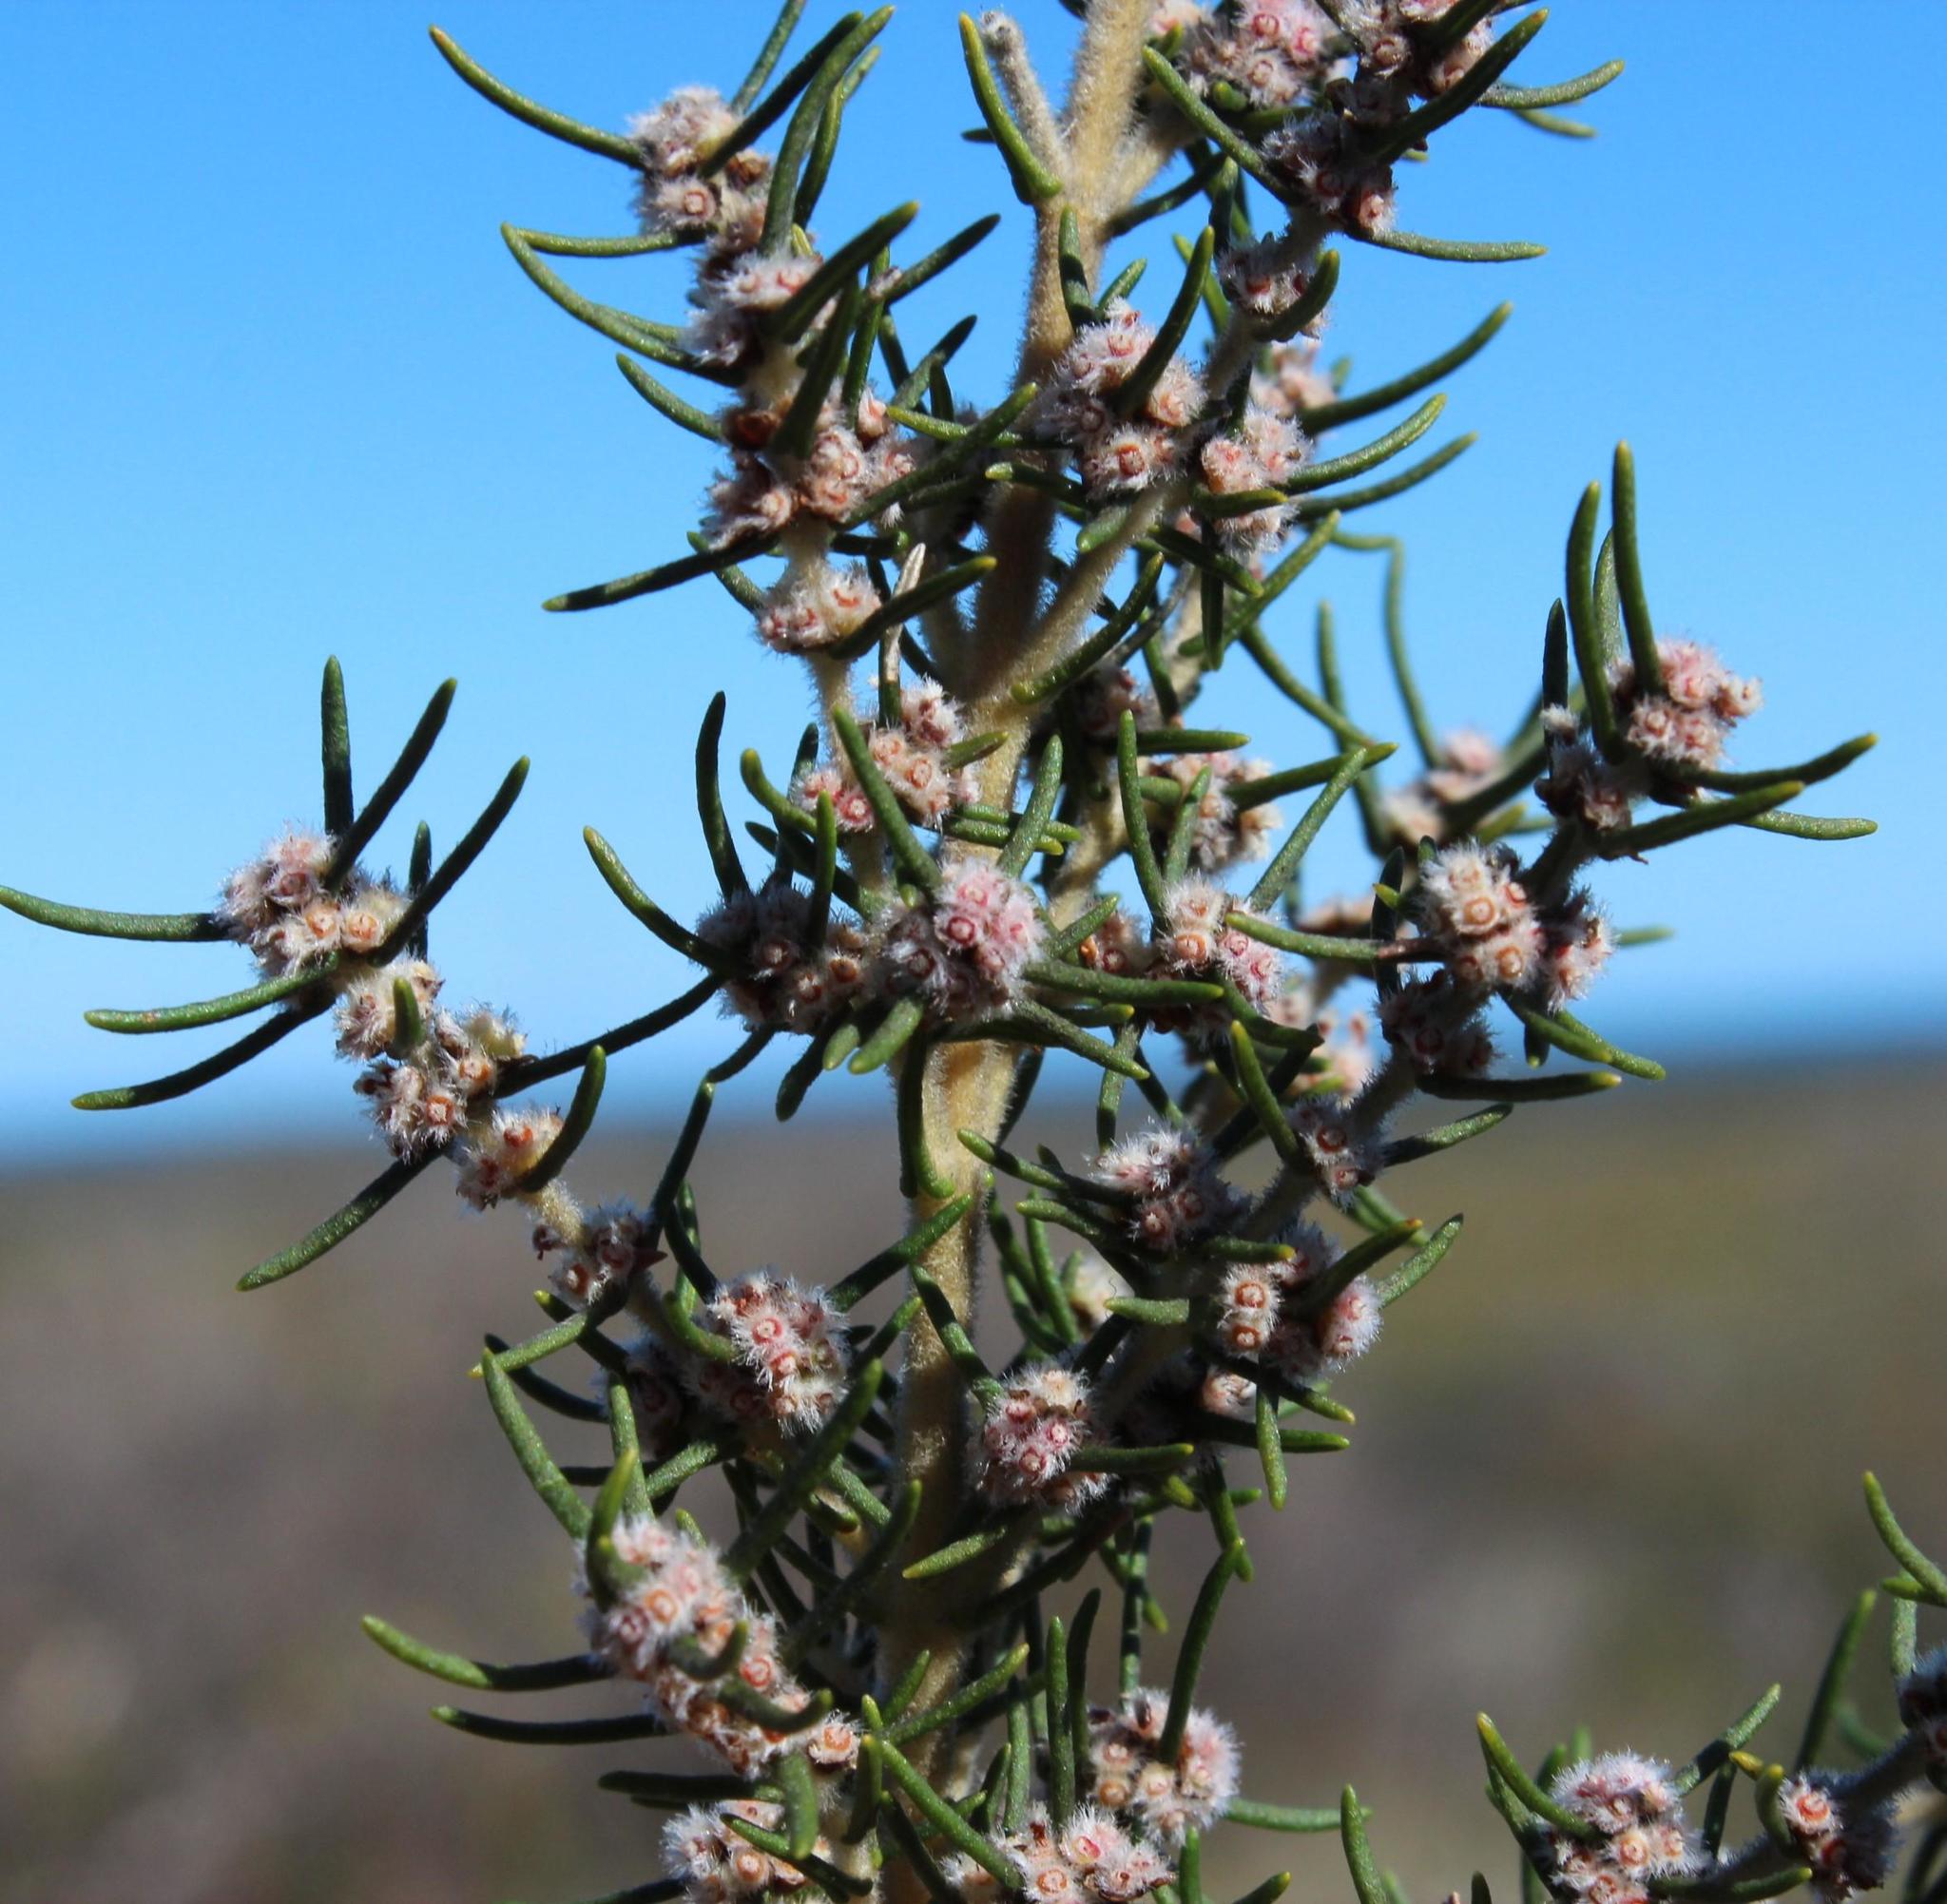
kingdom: Plantae
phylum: Tracheophyta
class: Magnoliopsida
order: Cornales
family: Grubbiaceae
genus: Grubbia
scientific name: Grubbia rosmarinifolia
